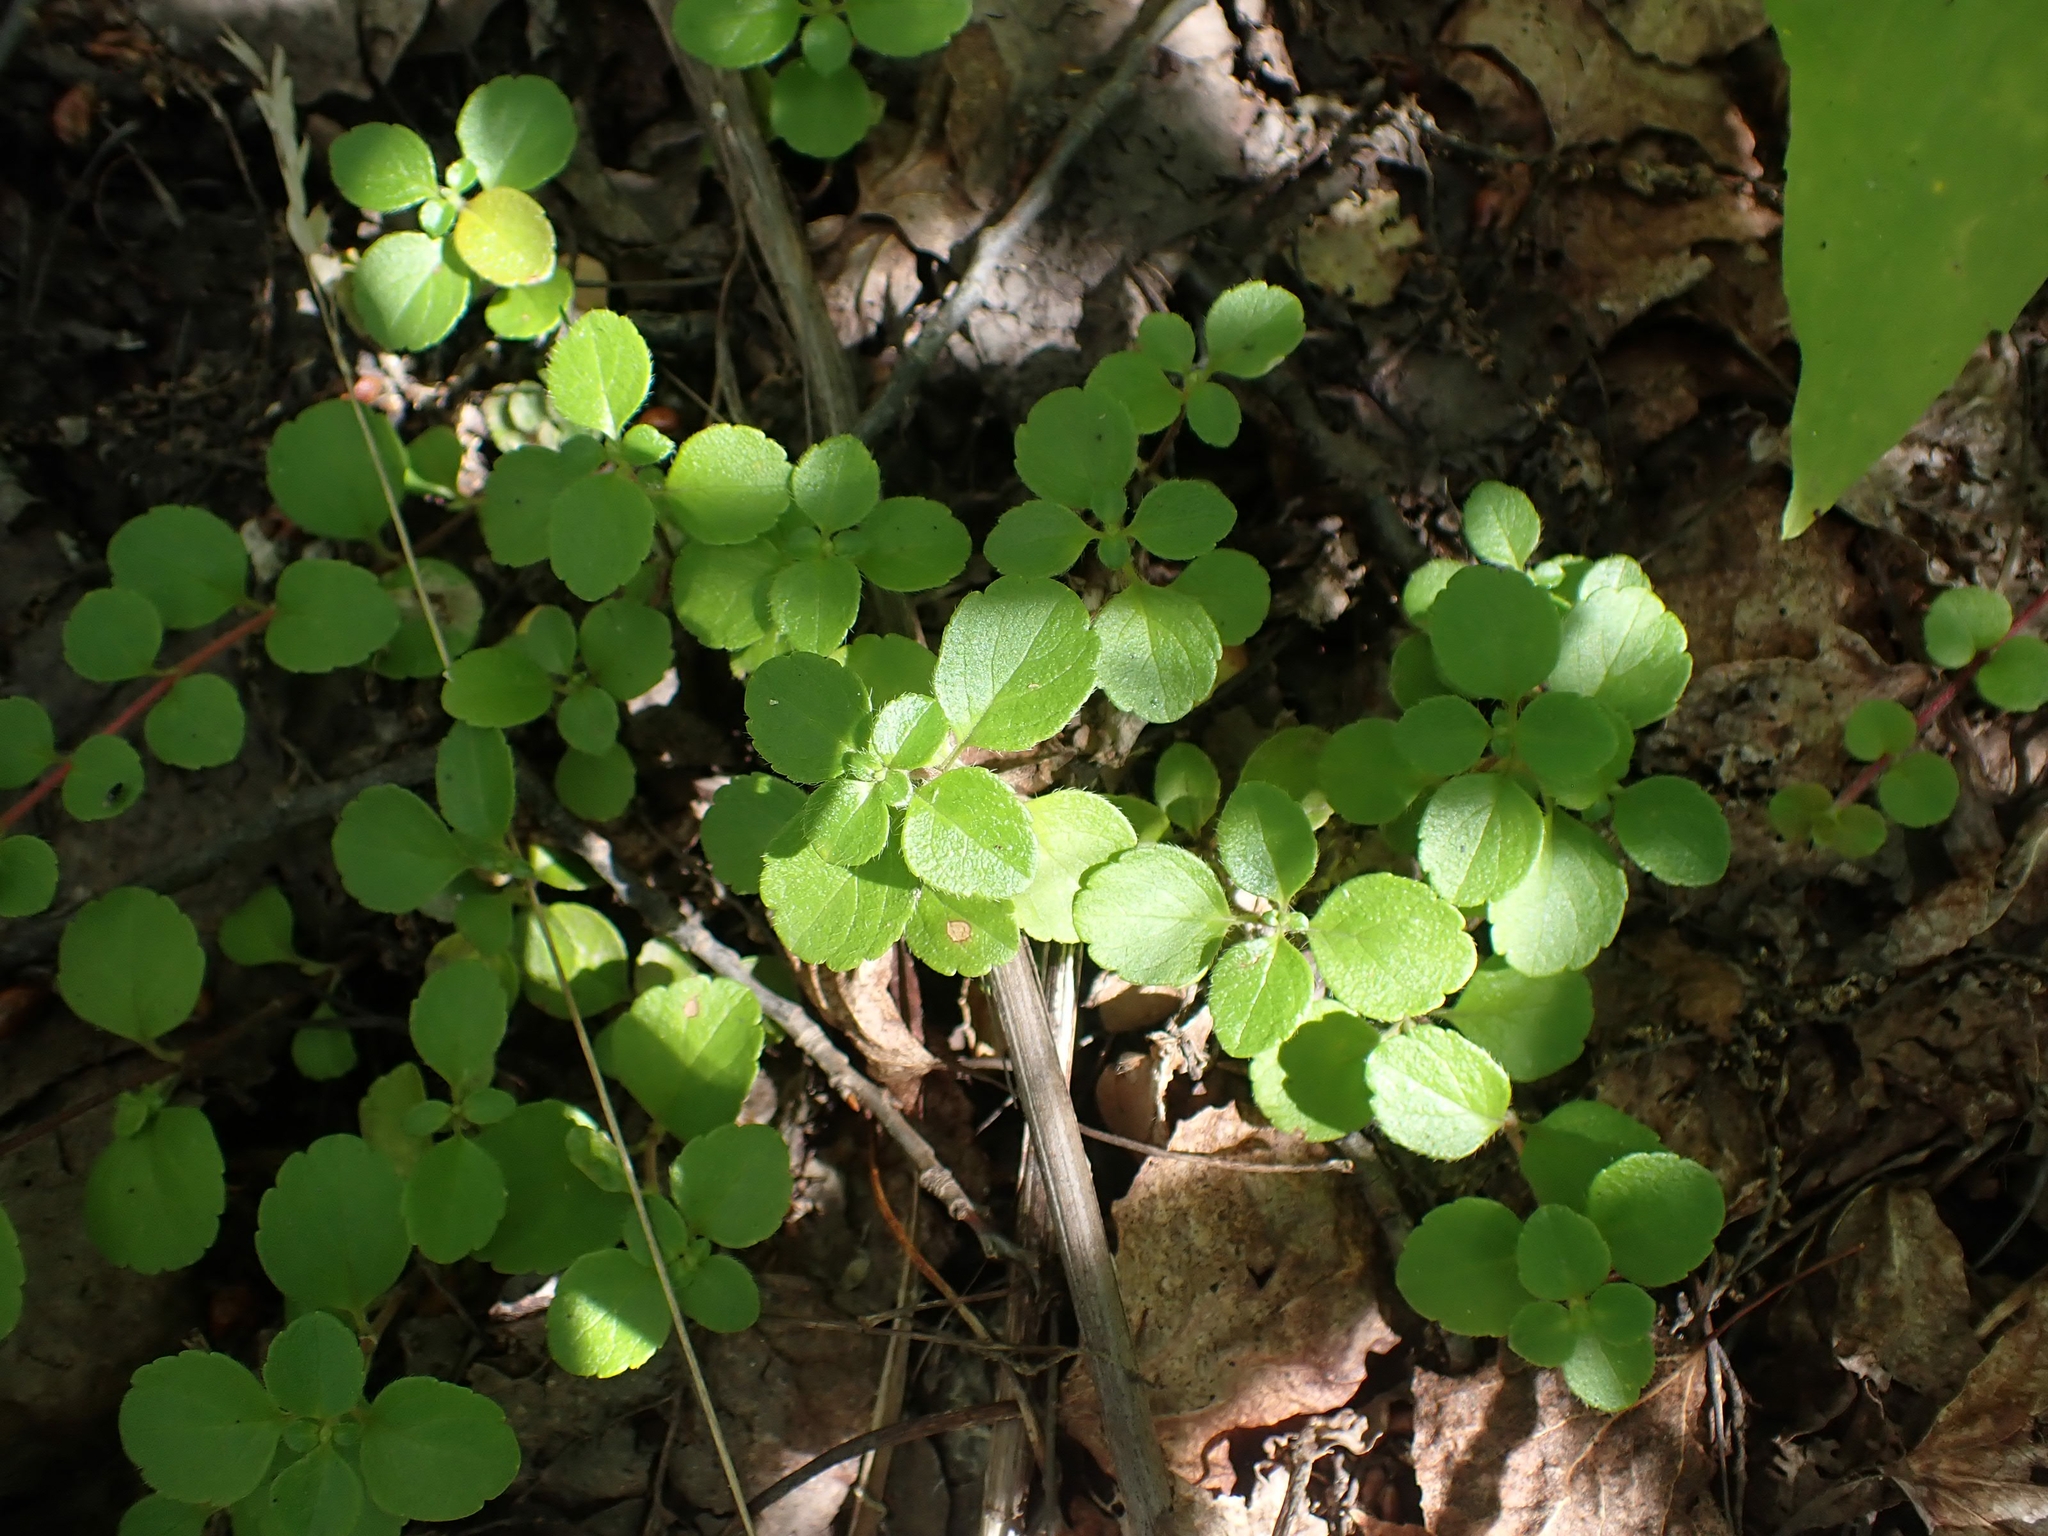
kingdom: Plantae
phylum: Tracheophyta
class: Magnoliopsida
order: Dipsacales
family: Caprifoliaceae
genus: Linnaea
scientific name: Linnaea borealis
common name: Twinflower
